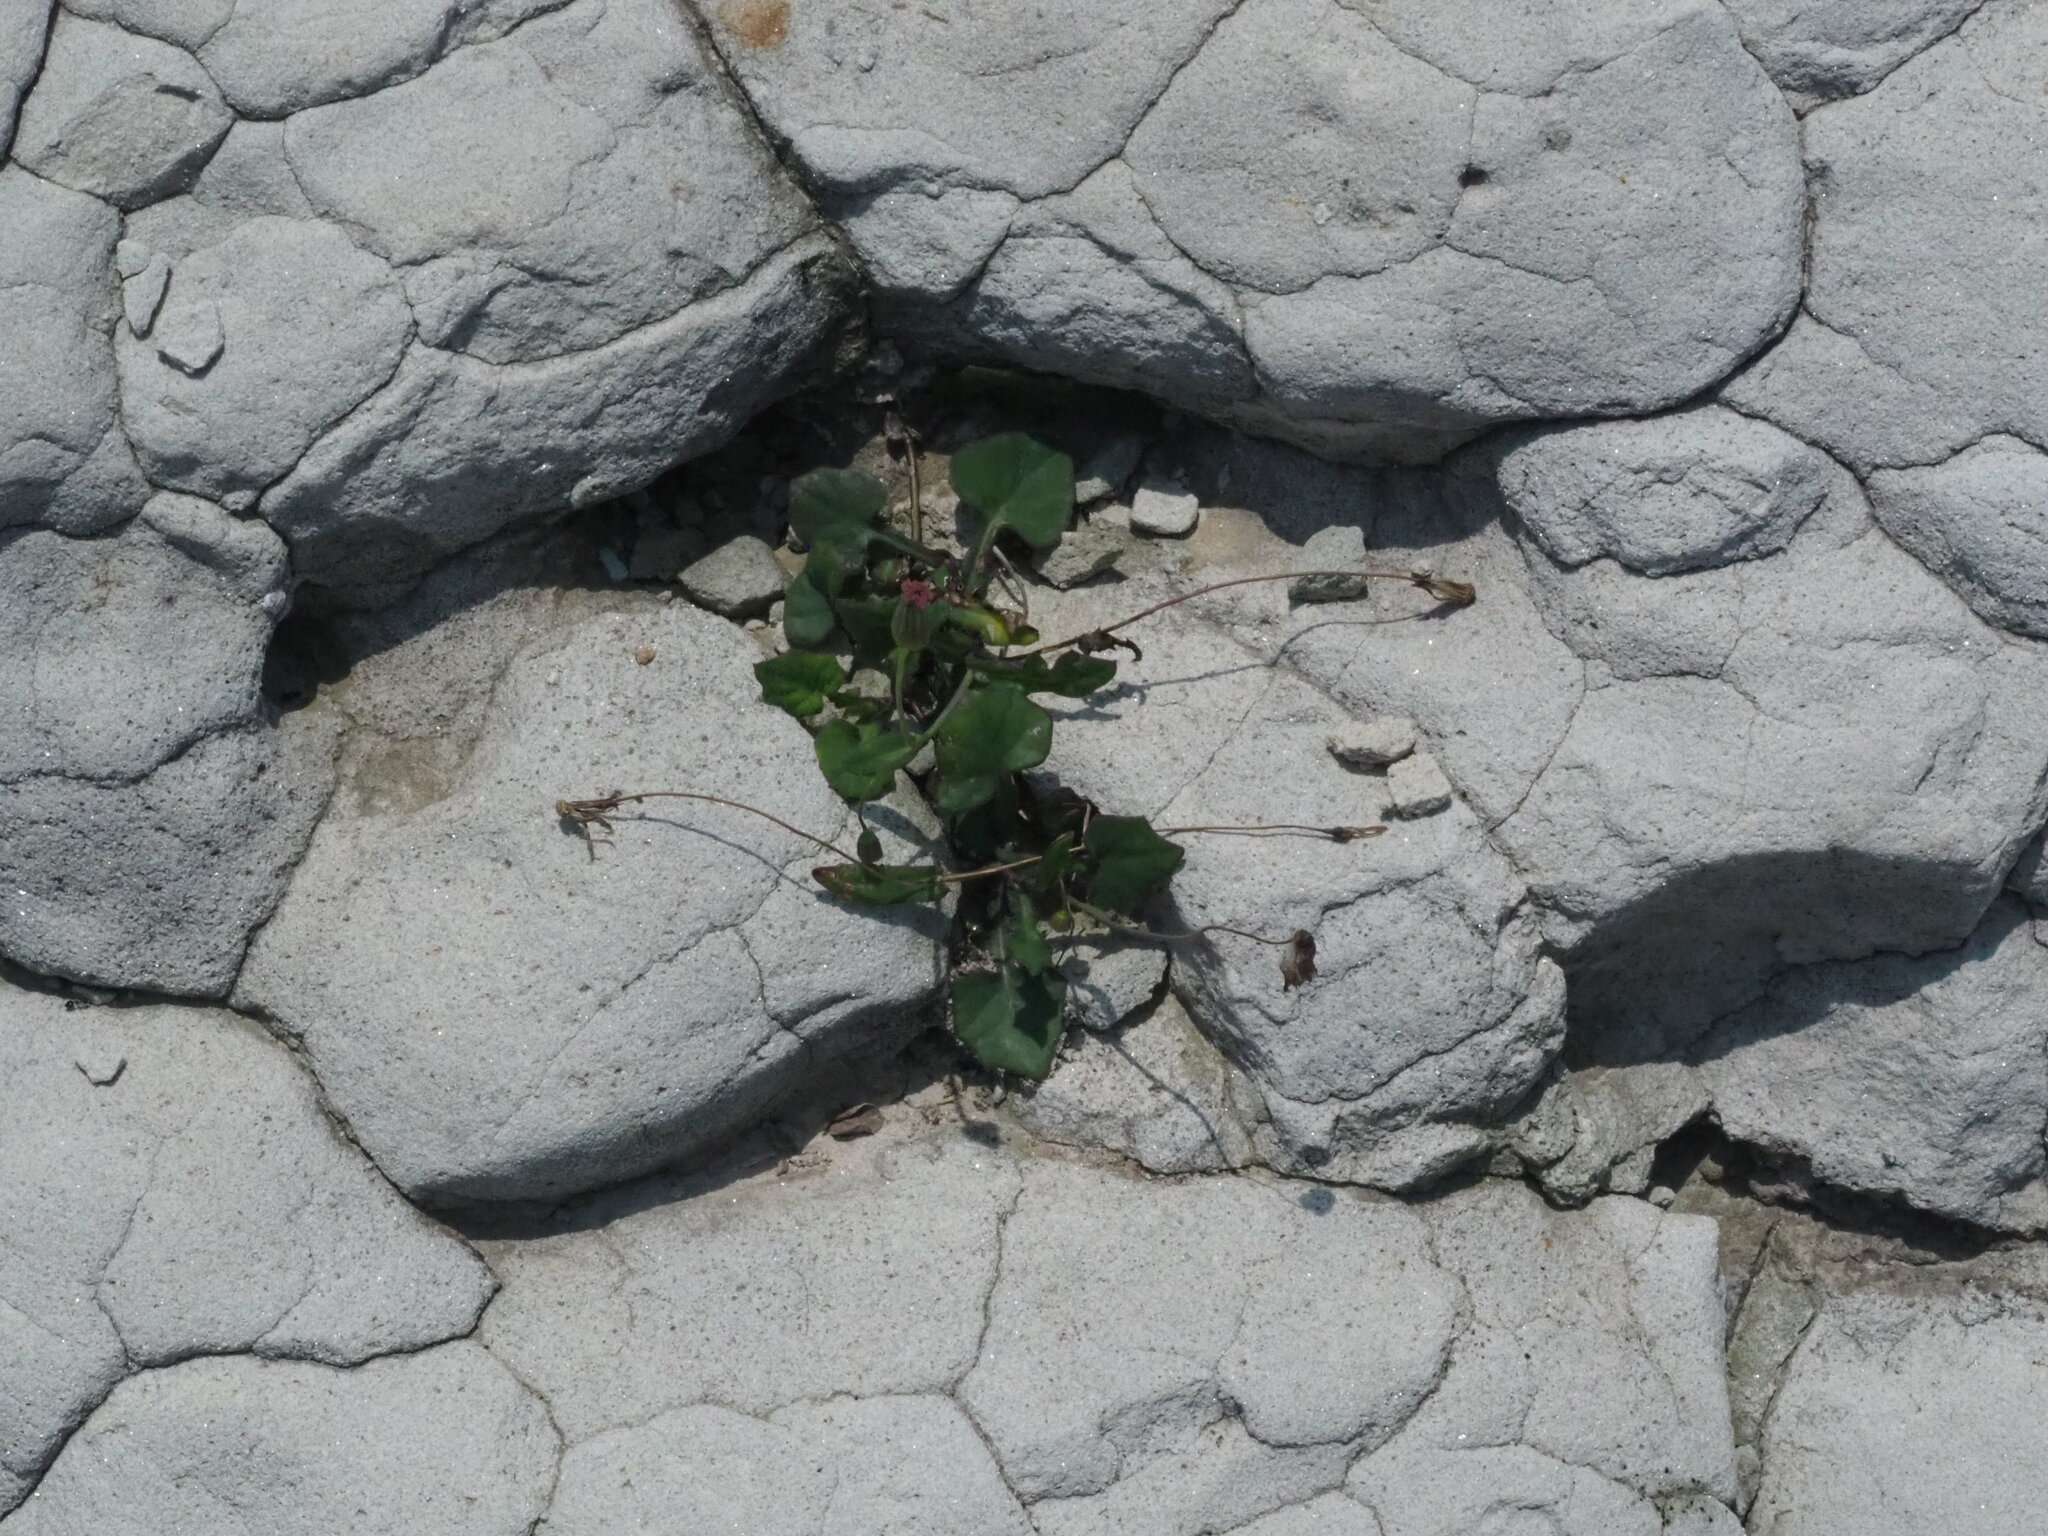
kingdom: Plantae
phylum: Tracheophyta
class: Magnoliopsida
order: Asterales
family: Asteraceae
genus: Emilia
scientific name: Emilia javanica
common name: Tassel-flower
